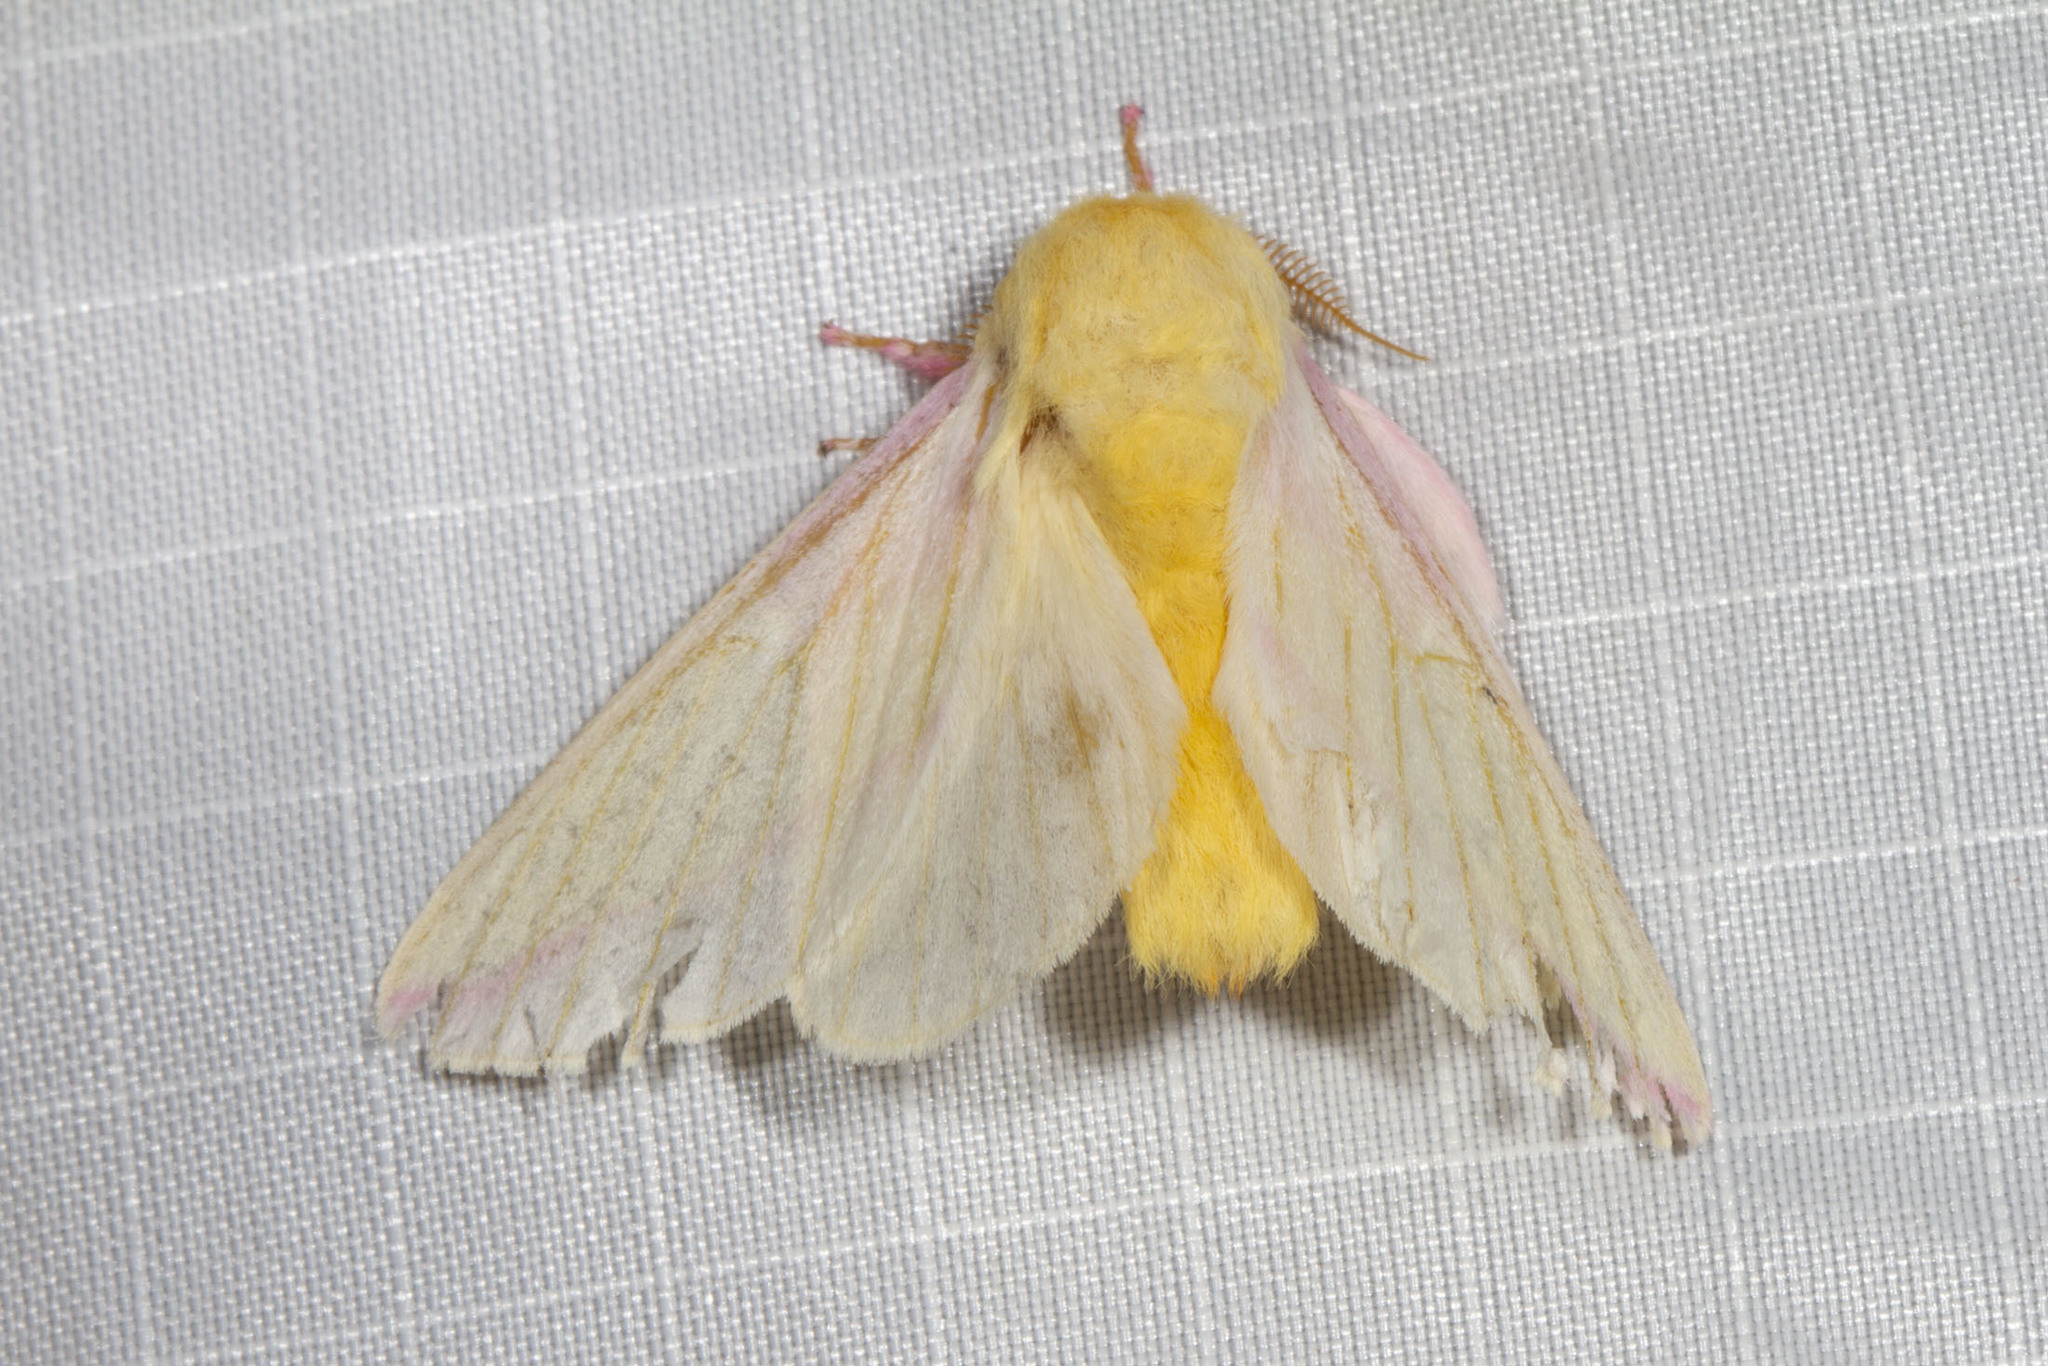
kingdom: Animalia
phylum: Arthropoda
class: Insecta
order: Lepidoptera
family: Saturniidae
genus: Dryocampa
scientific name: Dryocampa rubicunda
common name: Rosy maple moth
